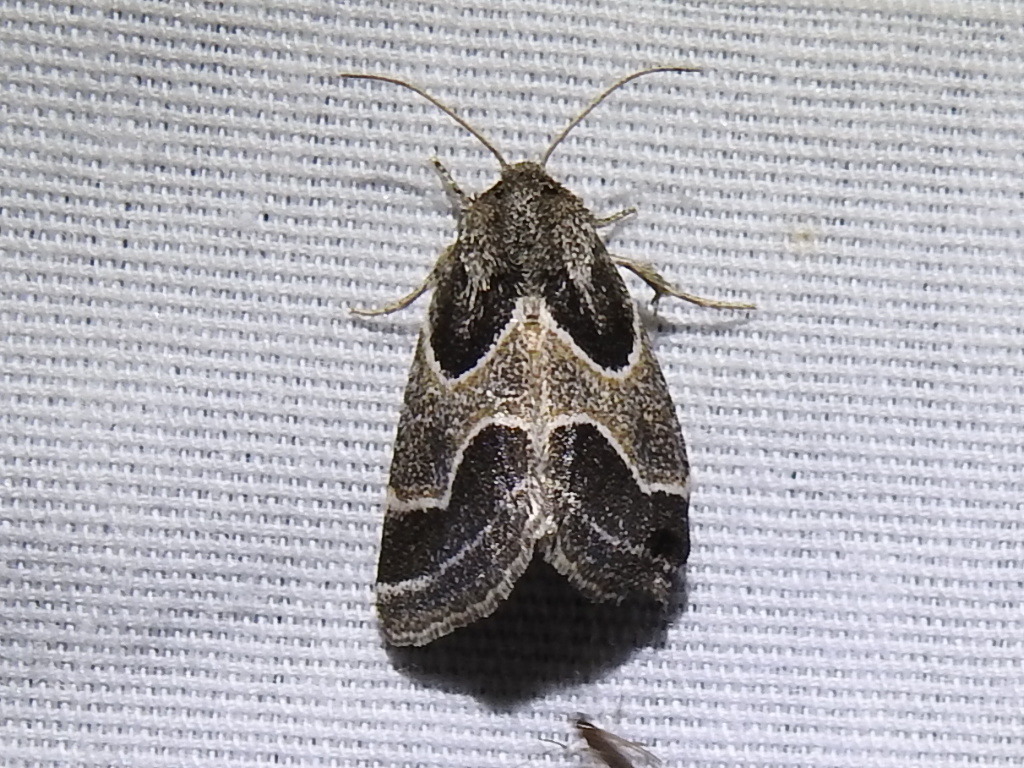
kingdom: Animalia
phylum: Arthropoda
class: Insecta
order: Lepidoptera
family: Noctuidae
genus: Schinia
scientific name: Schinia rivulosa
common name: Scarce meal-moth
